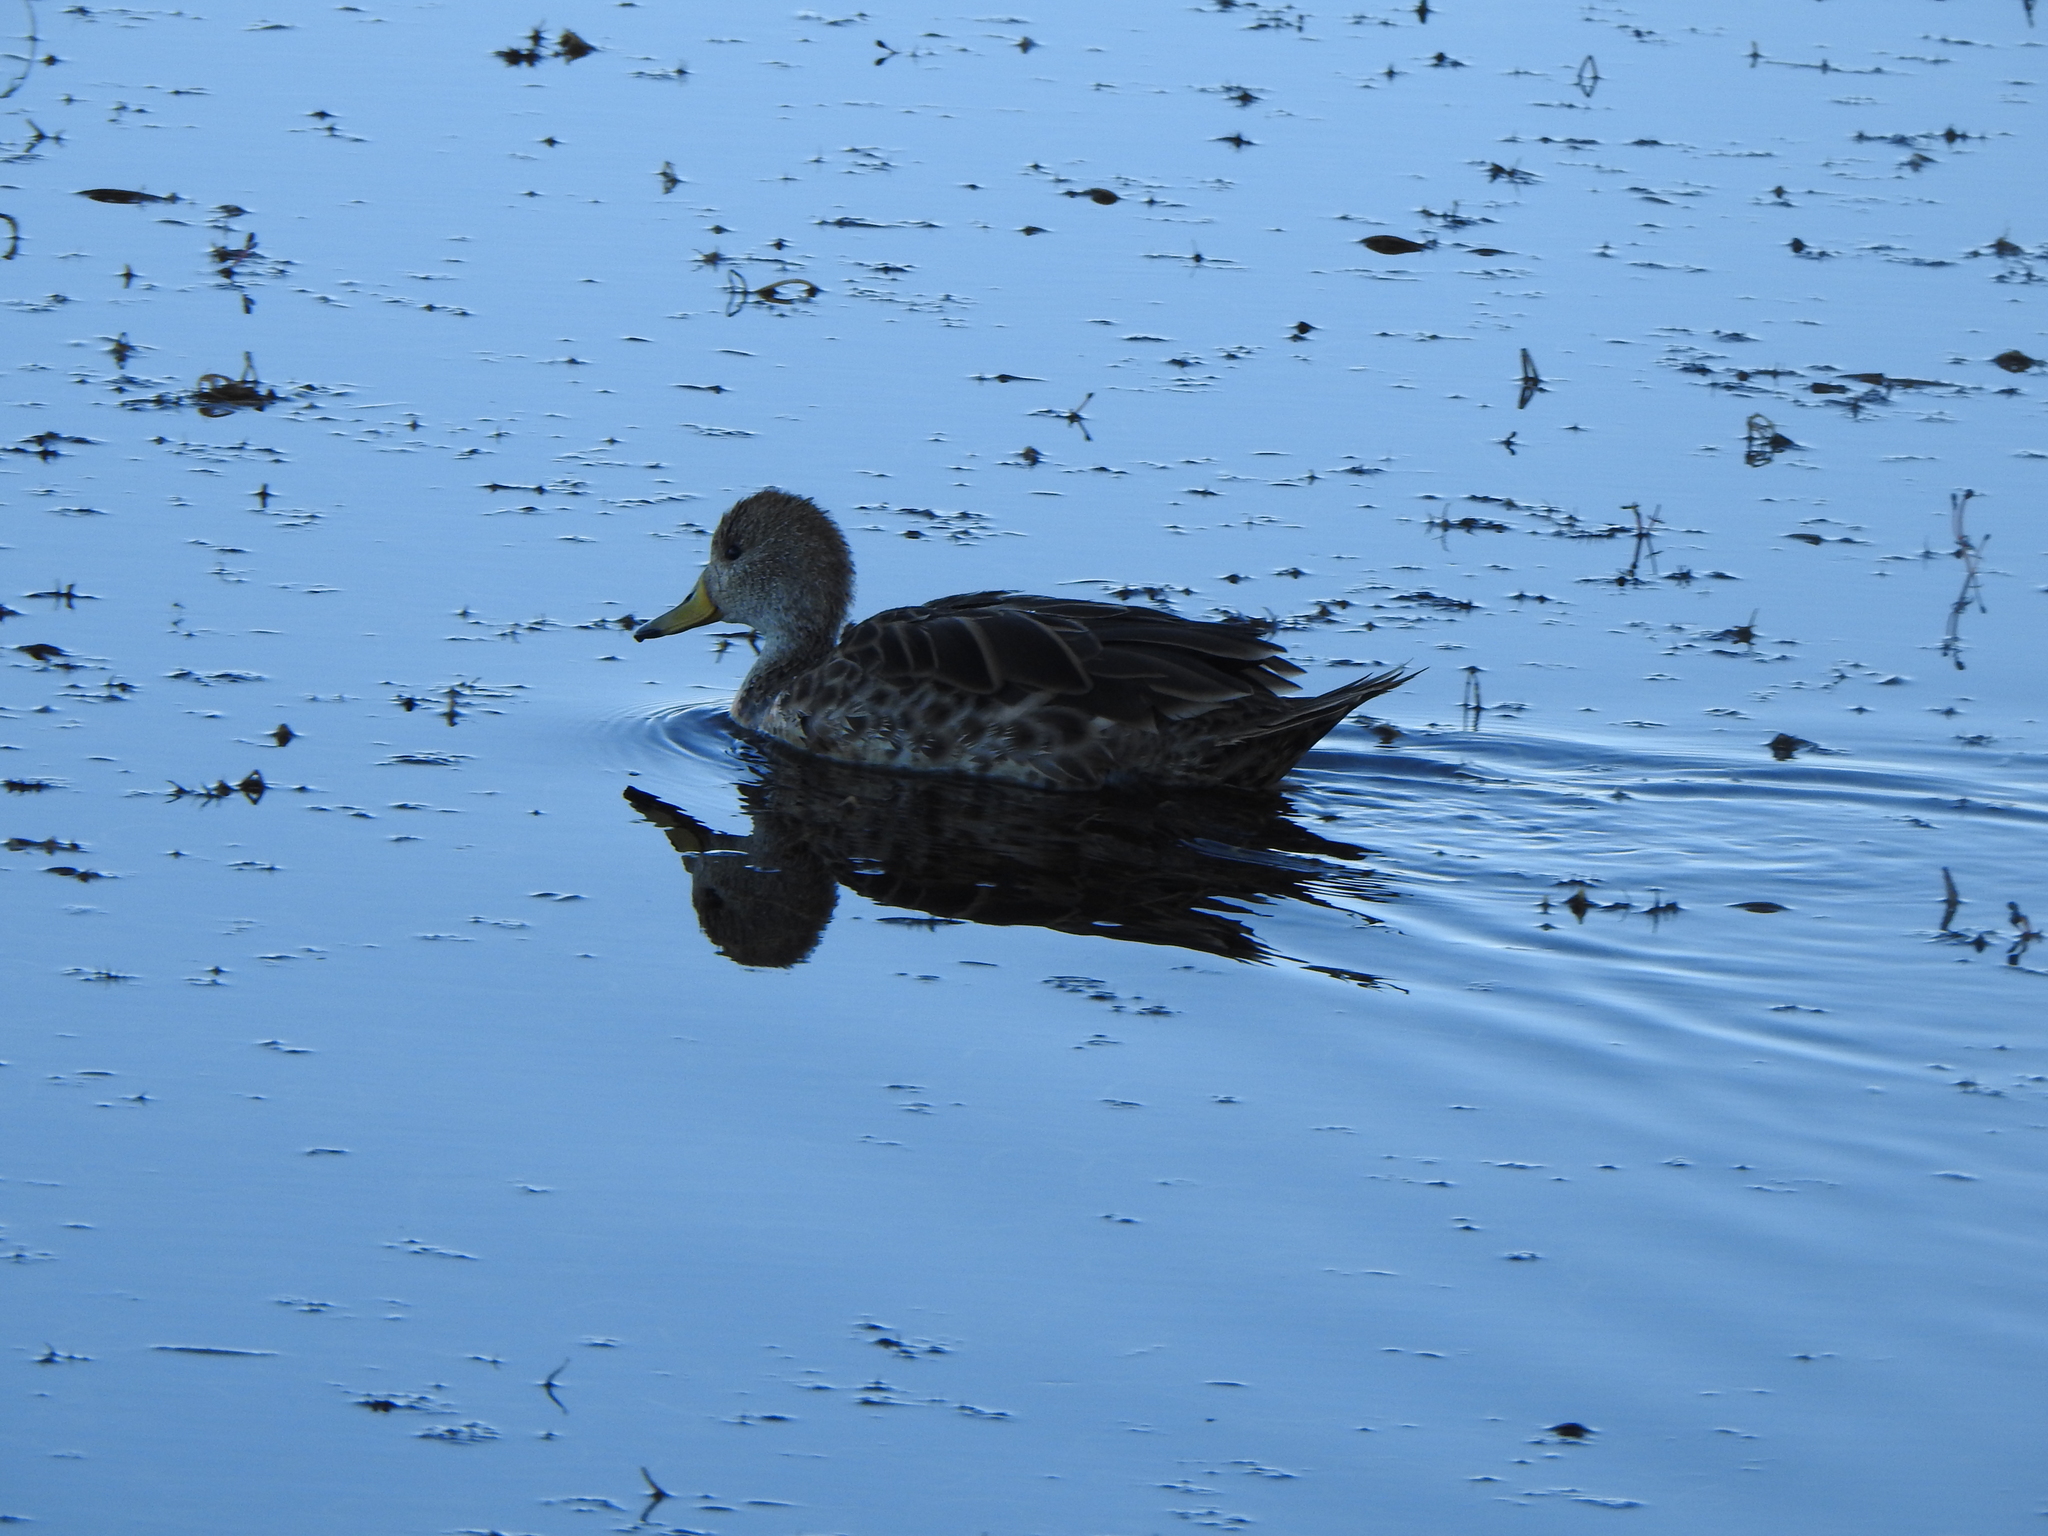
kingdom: Animalia
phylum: Chordata
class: Aves
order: Anseriformes
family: Anatidae
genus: Anas
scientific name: Anas georgica
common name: Yellow-billed pintail
